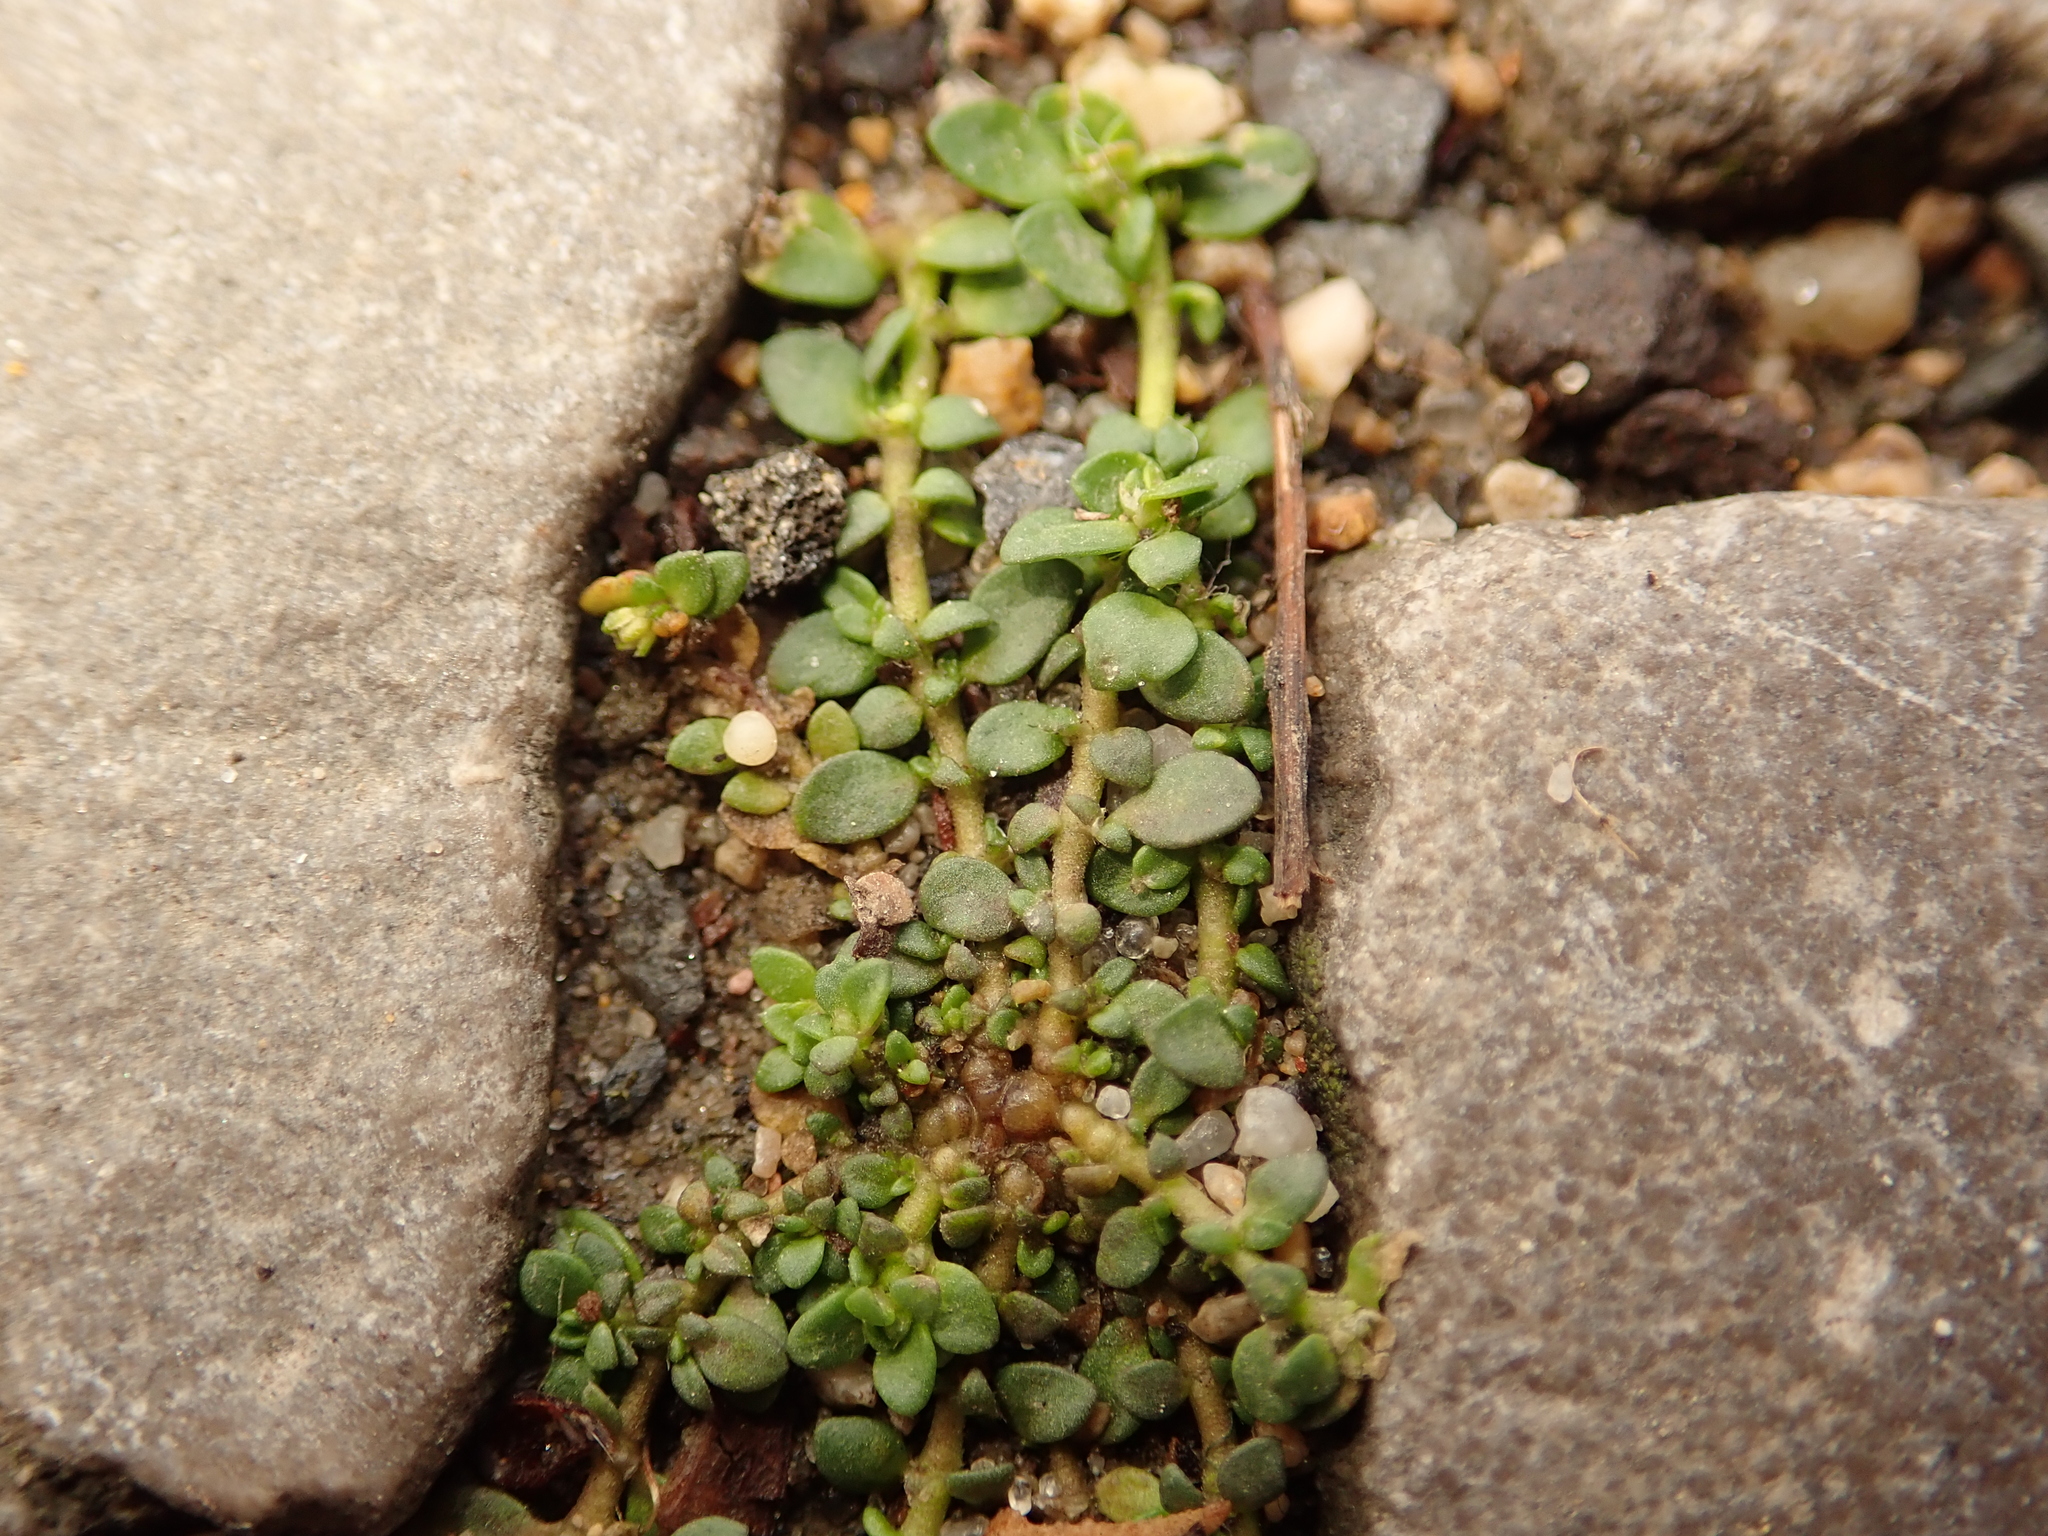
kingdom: Plantae
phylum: Tracheophyta
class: Magnoliopsida
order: Caryophyllales
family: Caryophyllaceae
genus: Herniaria
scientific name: Herniaria glabra
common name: Smooth rupturewort
